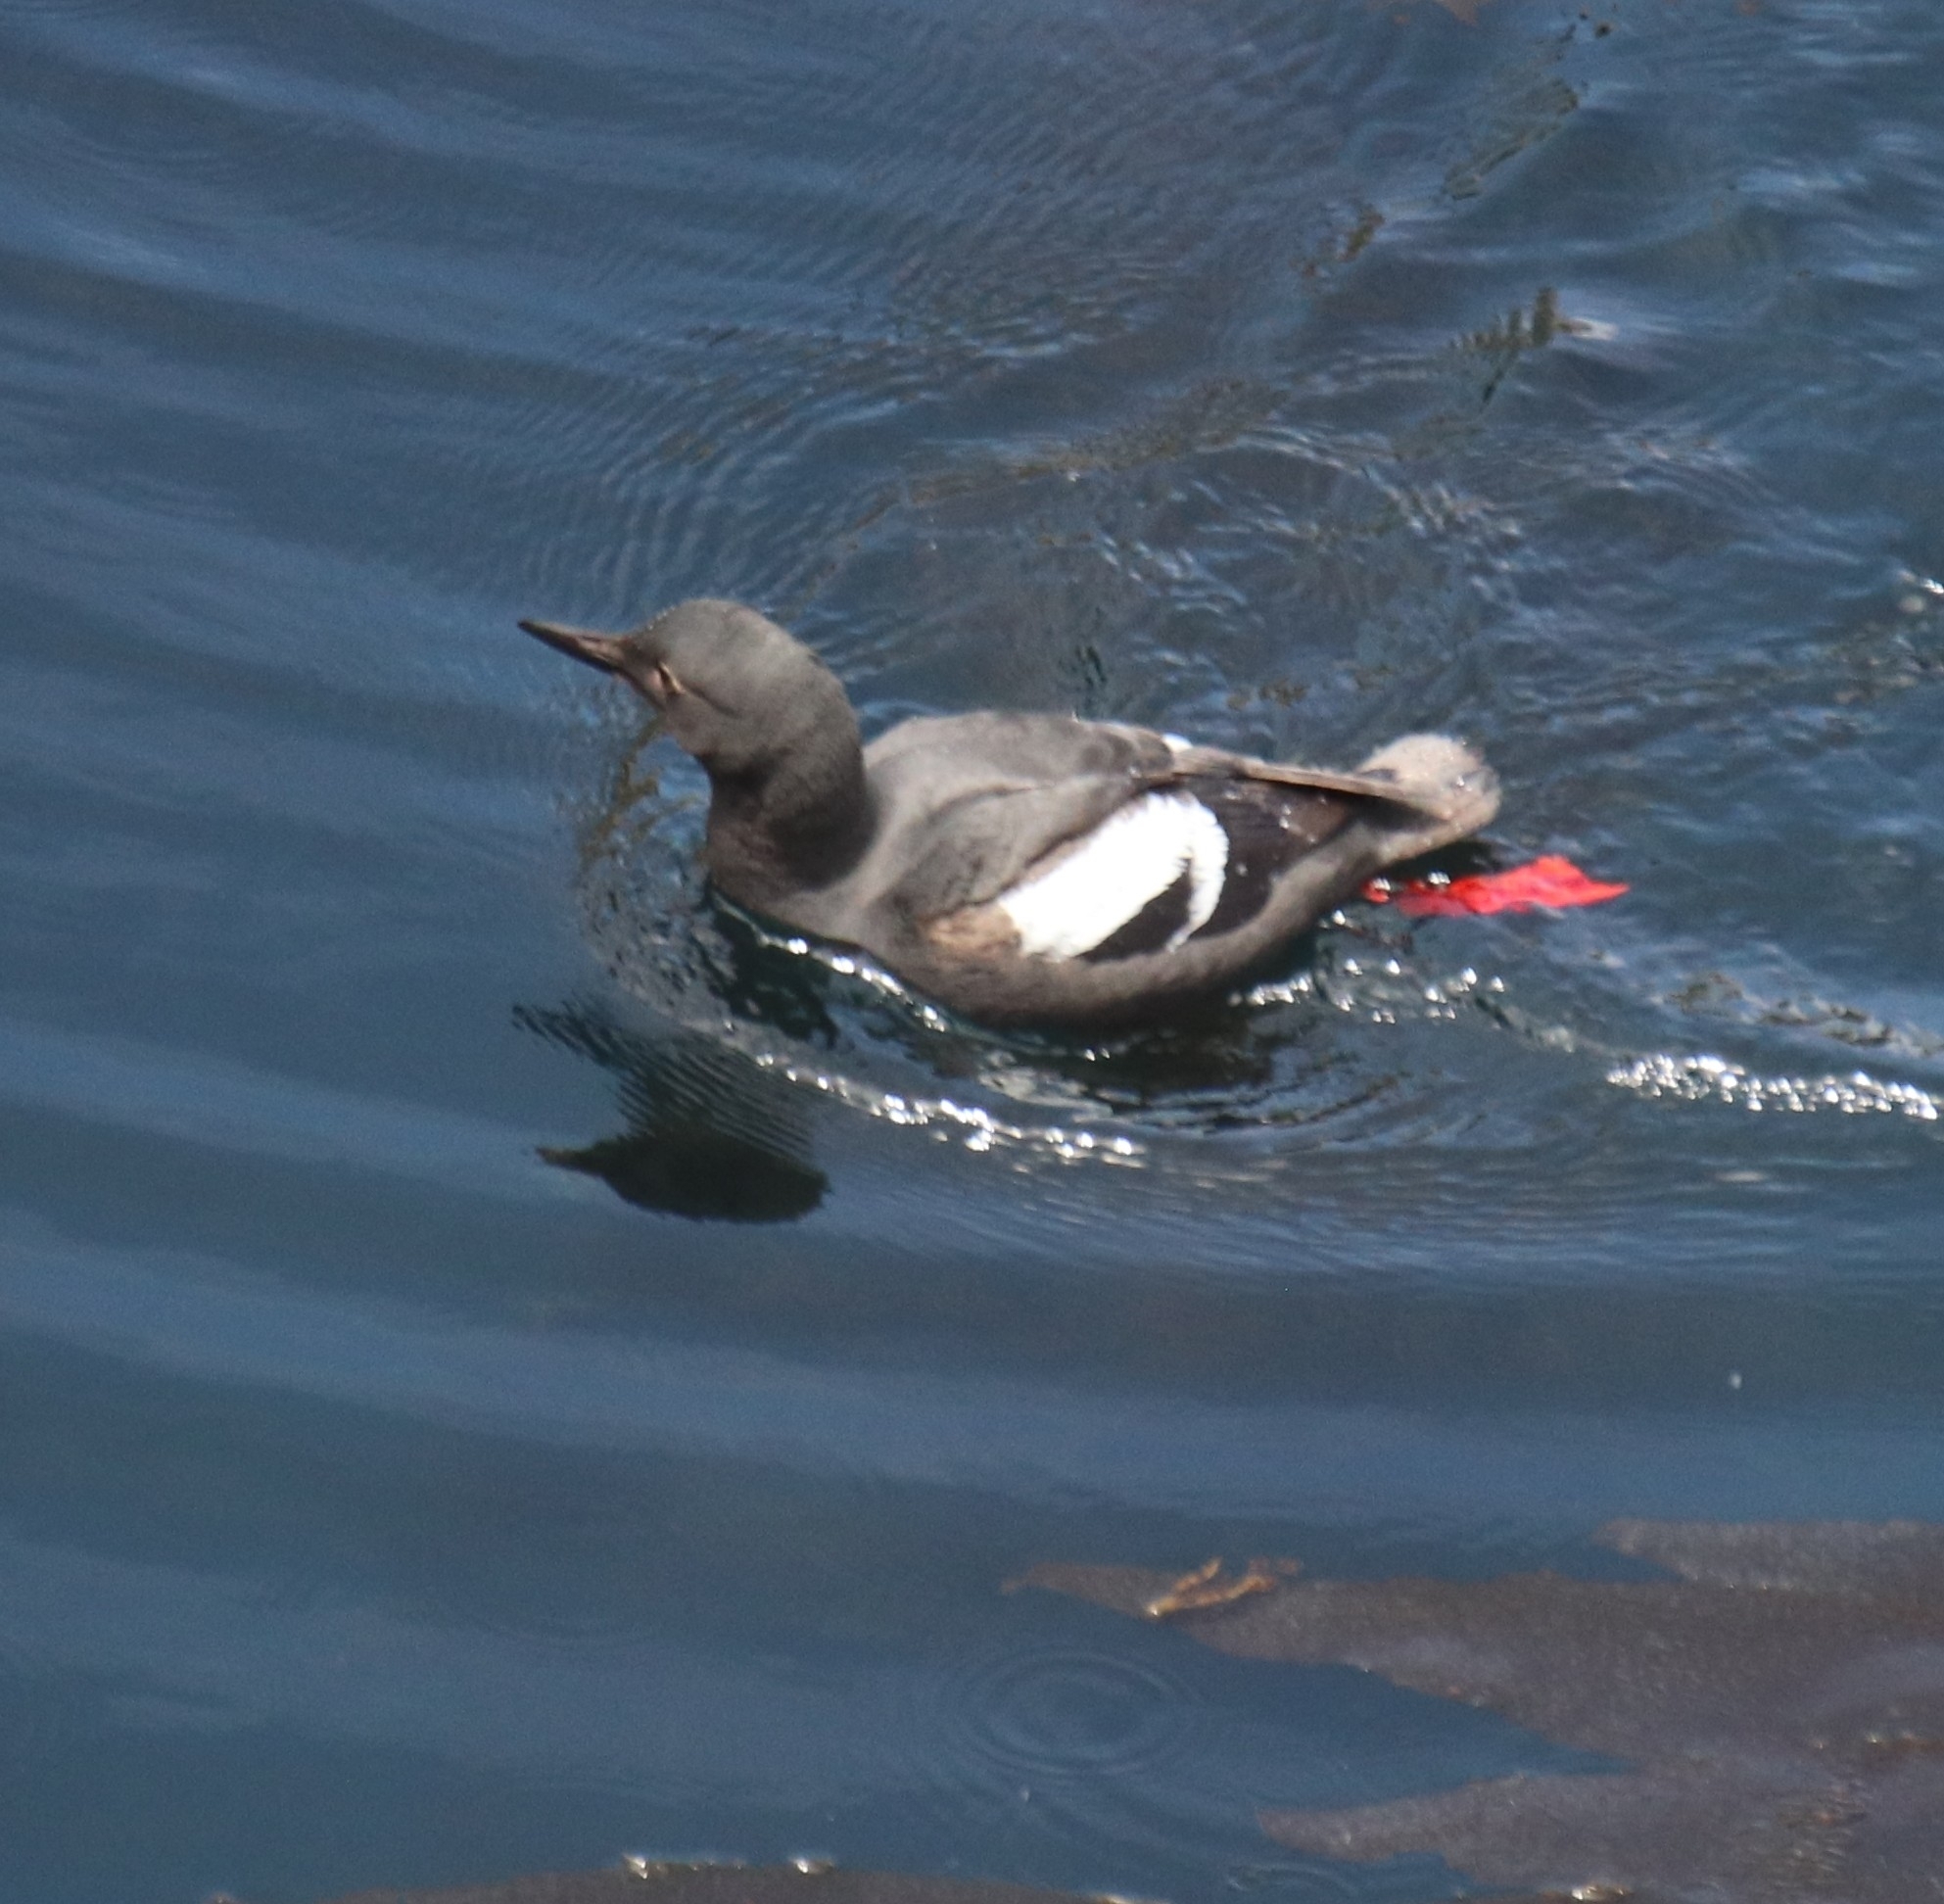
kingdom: Animalia
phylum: Chordata
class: Aves
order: Charadriiformes
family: Alcidae
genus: Cepphus
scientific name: Cepphus columba
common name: Pigeon guillemot
